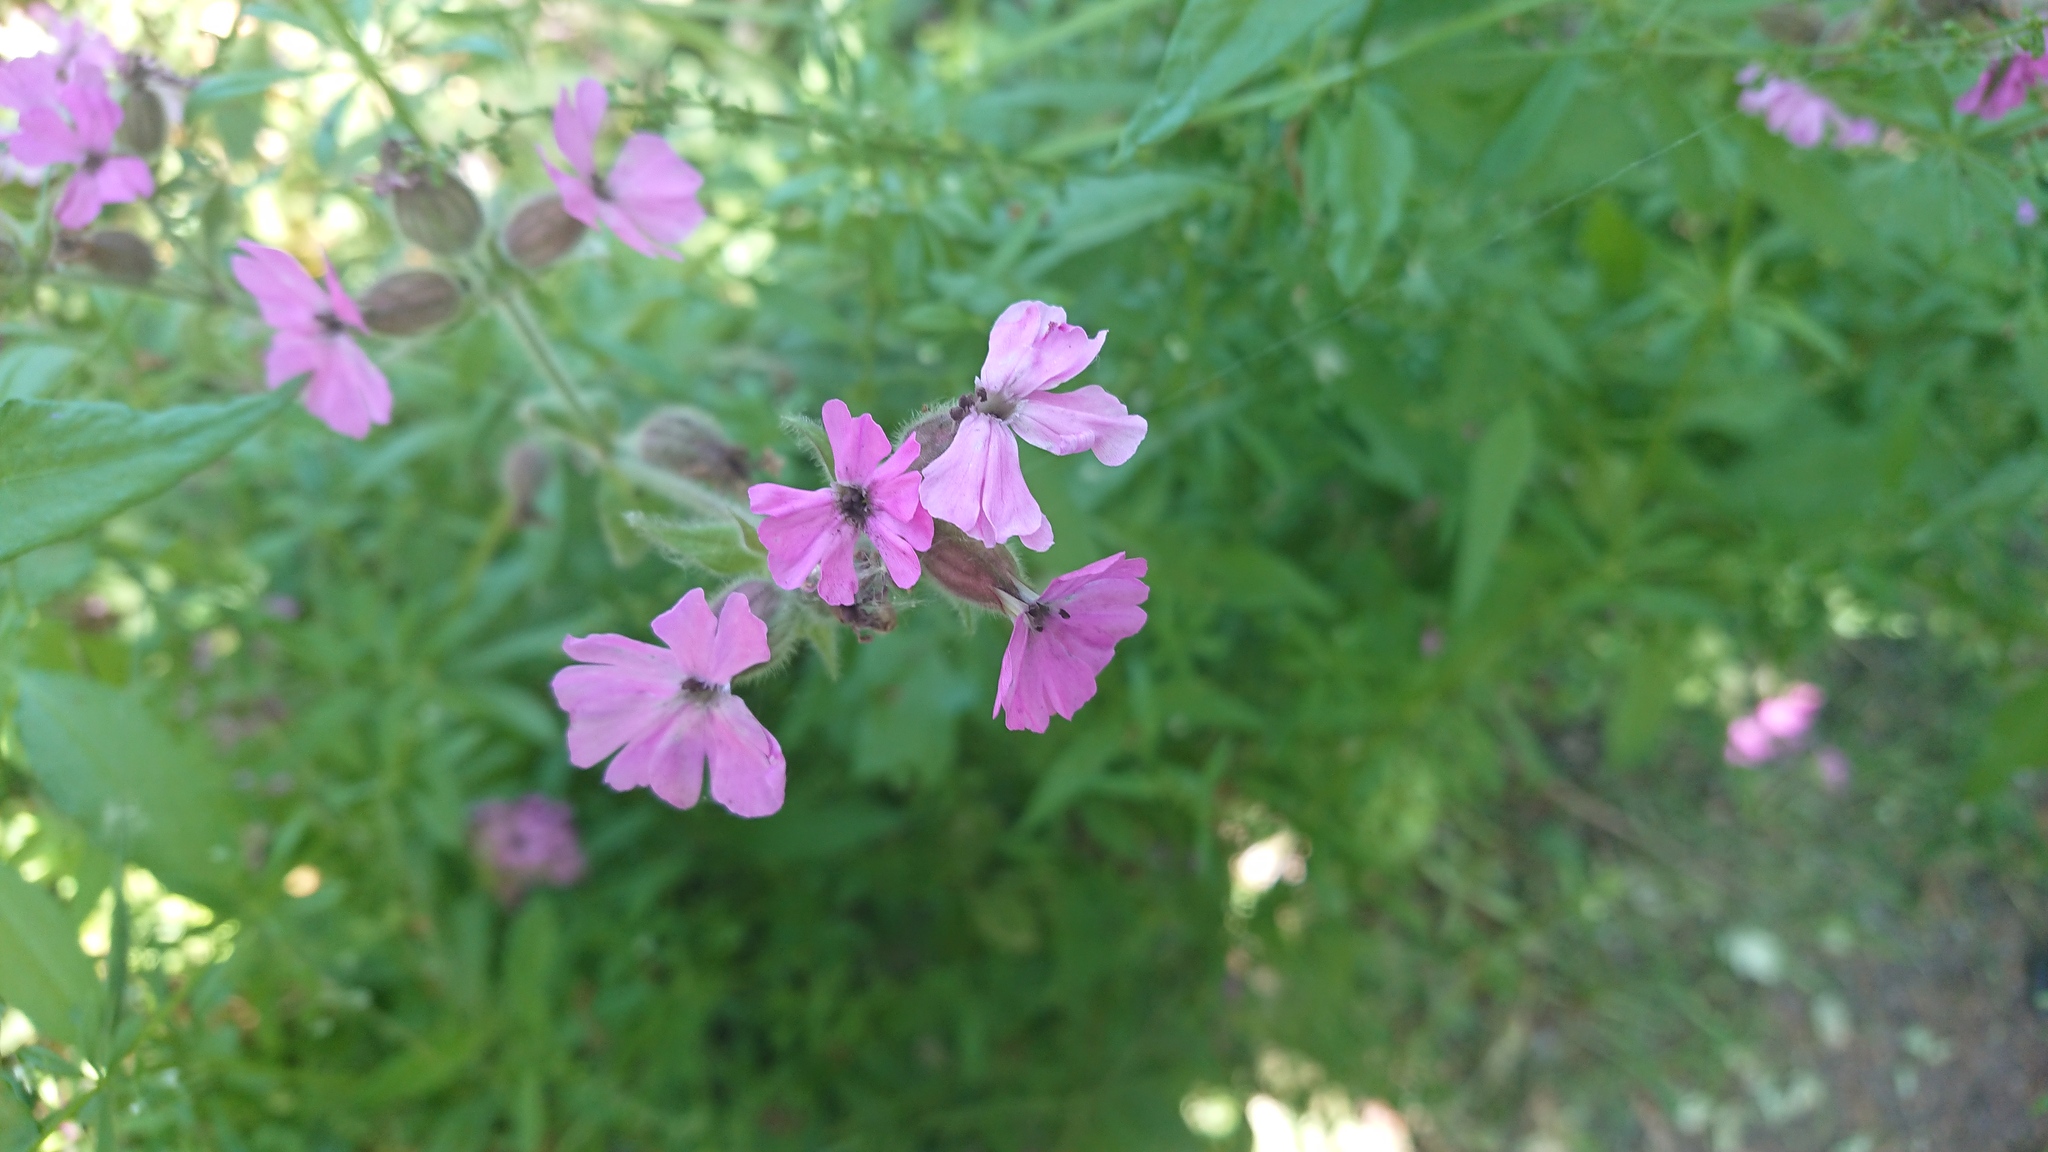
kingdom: Fungi
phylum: Basidiomycota
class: Microbotryomycetes
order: Microbotryales
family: Microbotryaceae
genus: Microbotryum
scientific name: Microbotryum silenes-dioicae
